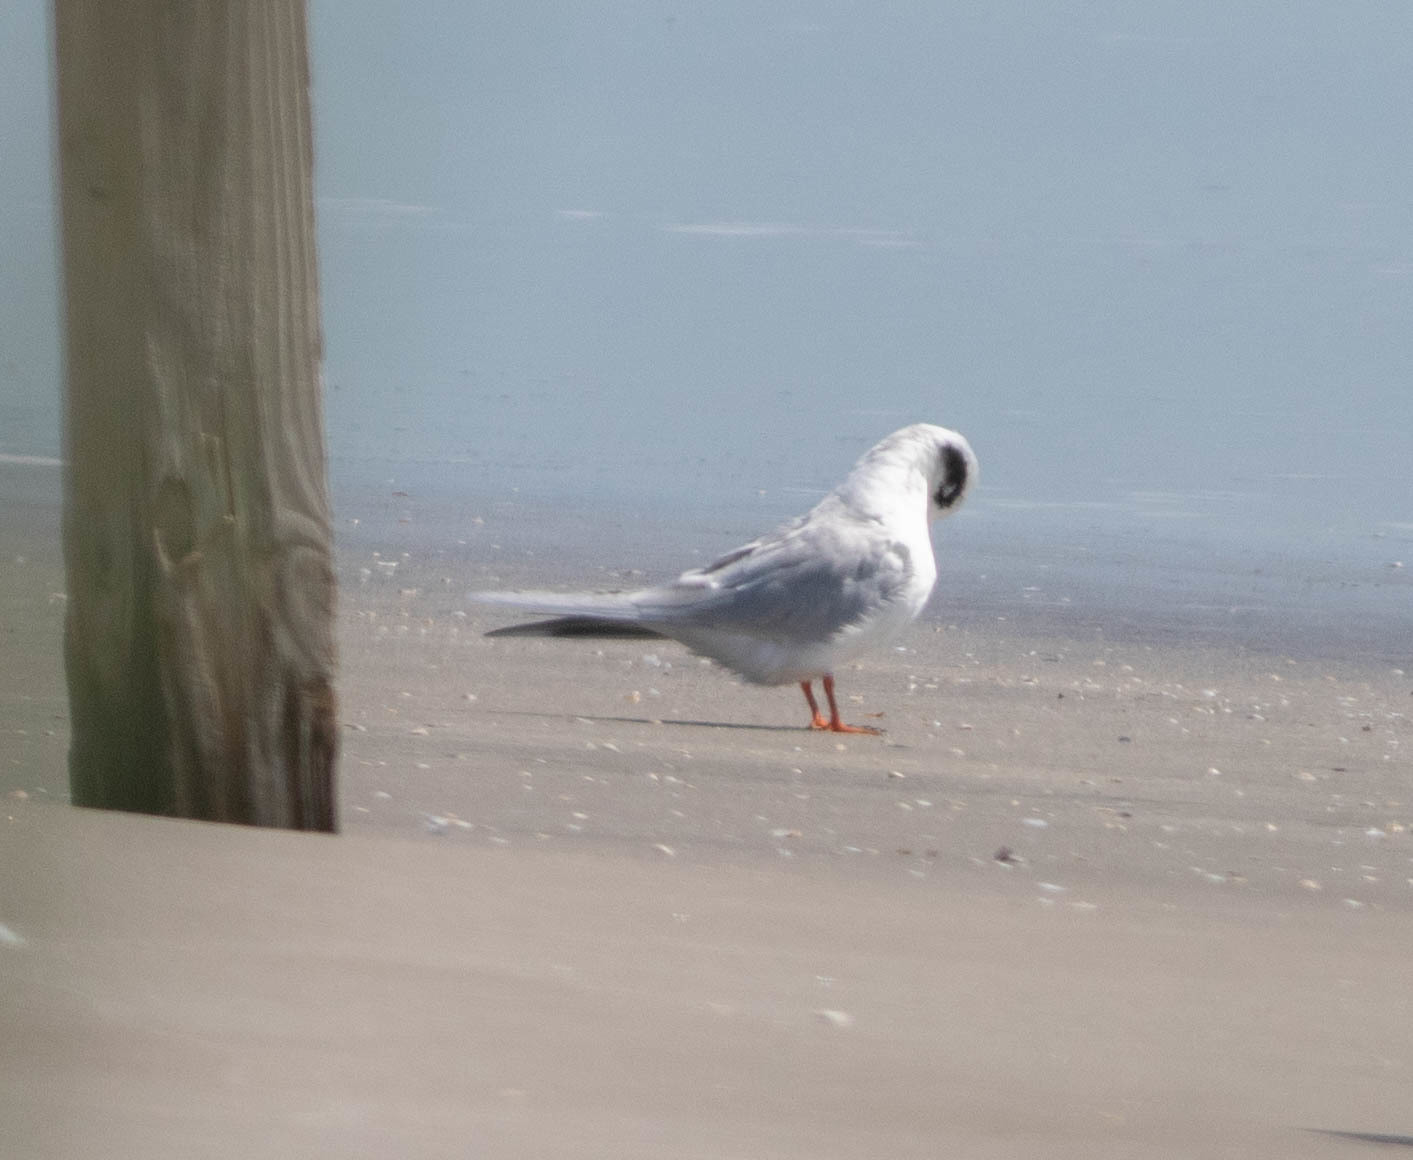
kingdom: Animalia
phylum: Chordata
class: Aves
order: Charadriiformes
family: Laridae
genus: Sterna
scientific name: Sterna forsteri
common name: Forster's tern
